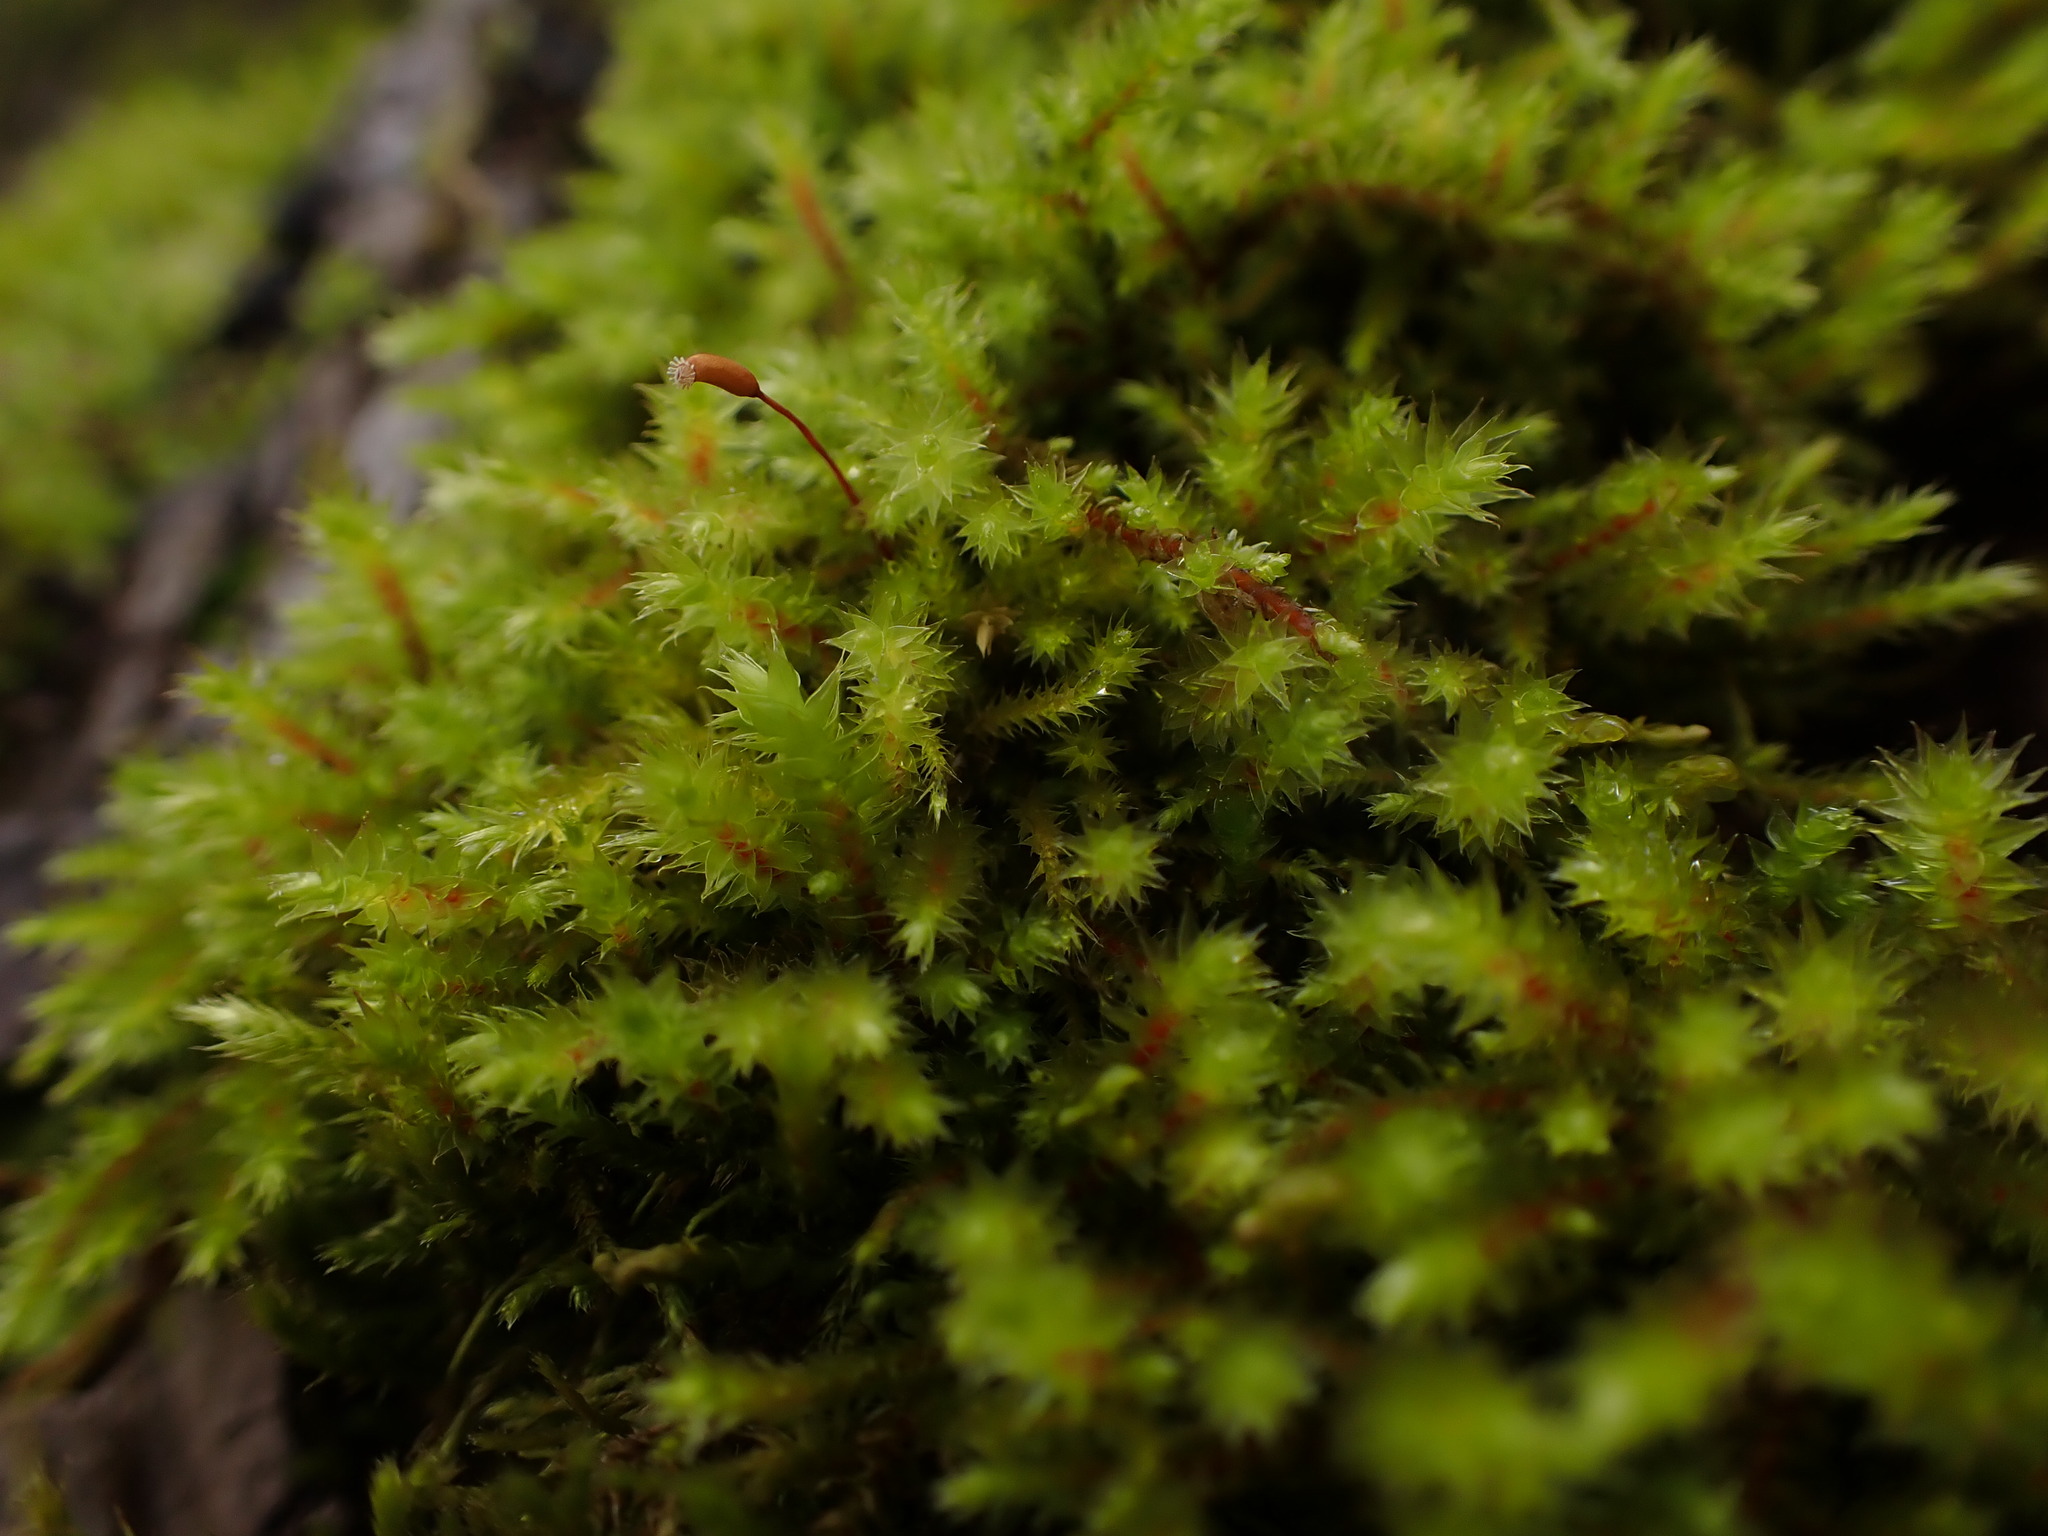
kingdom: Plantae
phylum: Bryophyta
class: Bryopsida
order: Hypnales
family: Antitrichiaceae
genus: Antitrichia
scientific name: Antitrichia californica
